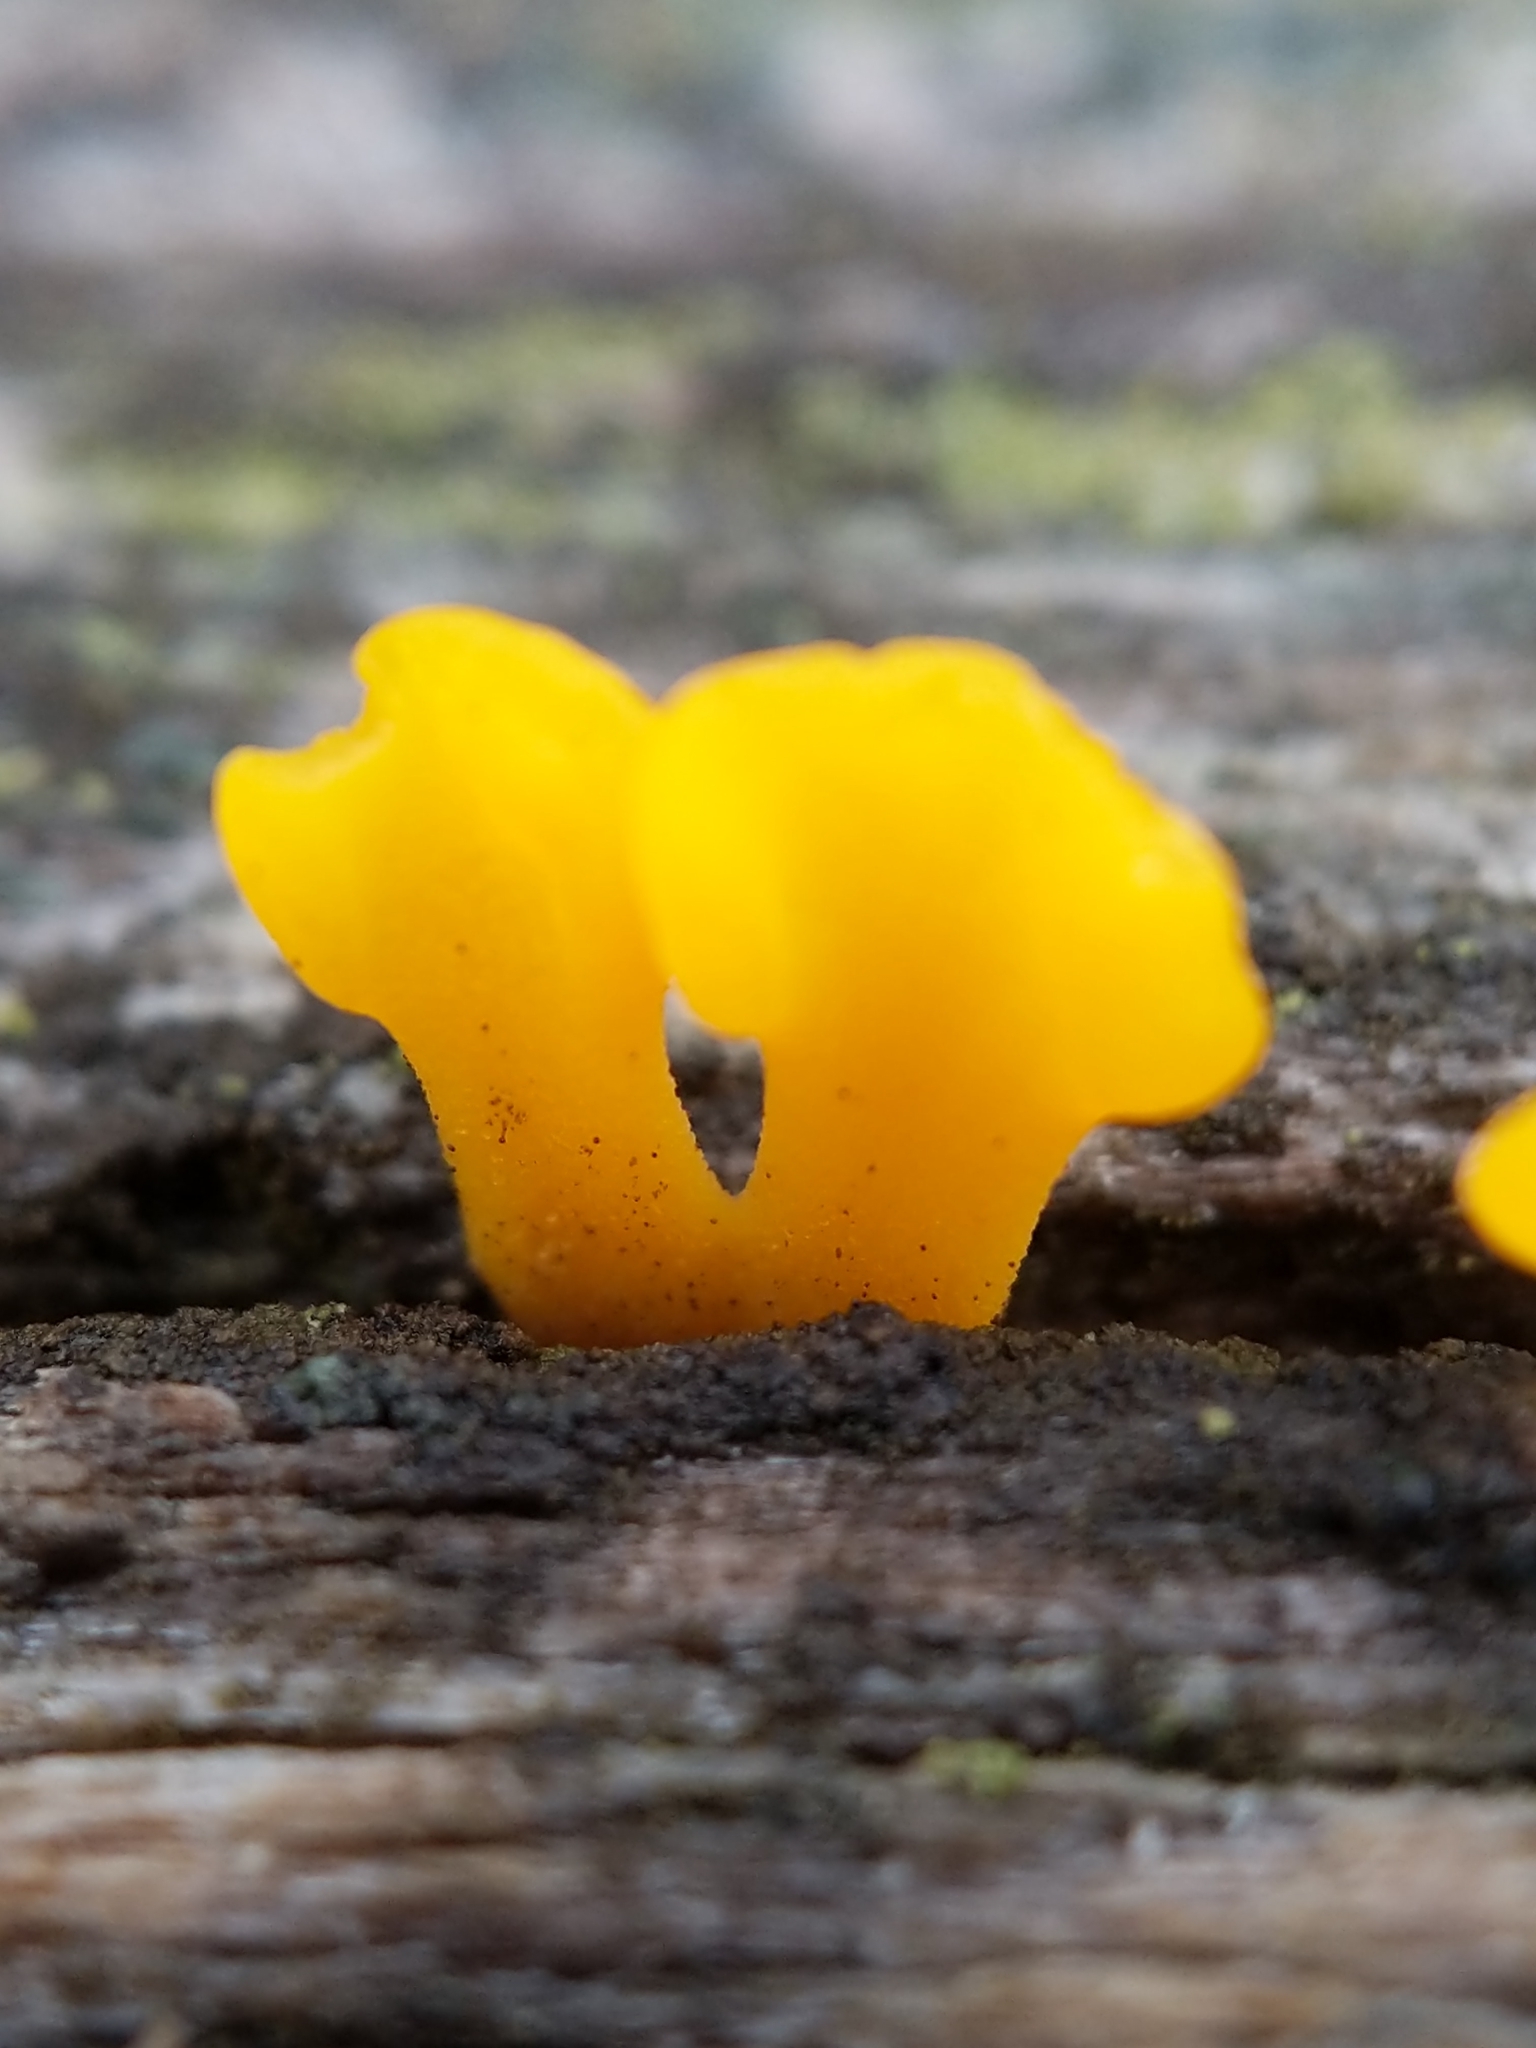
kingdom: Fungi
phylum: Basidiomycota
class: Dacrymycetes
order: Dacrymycetales
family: Dacrymycetaceae
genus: Dacrymyces
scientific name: Dacrymyces spathularius
